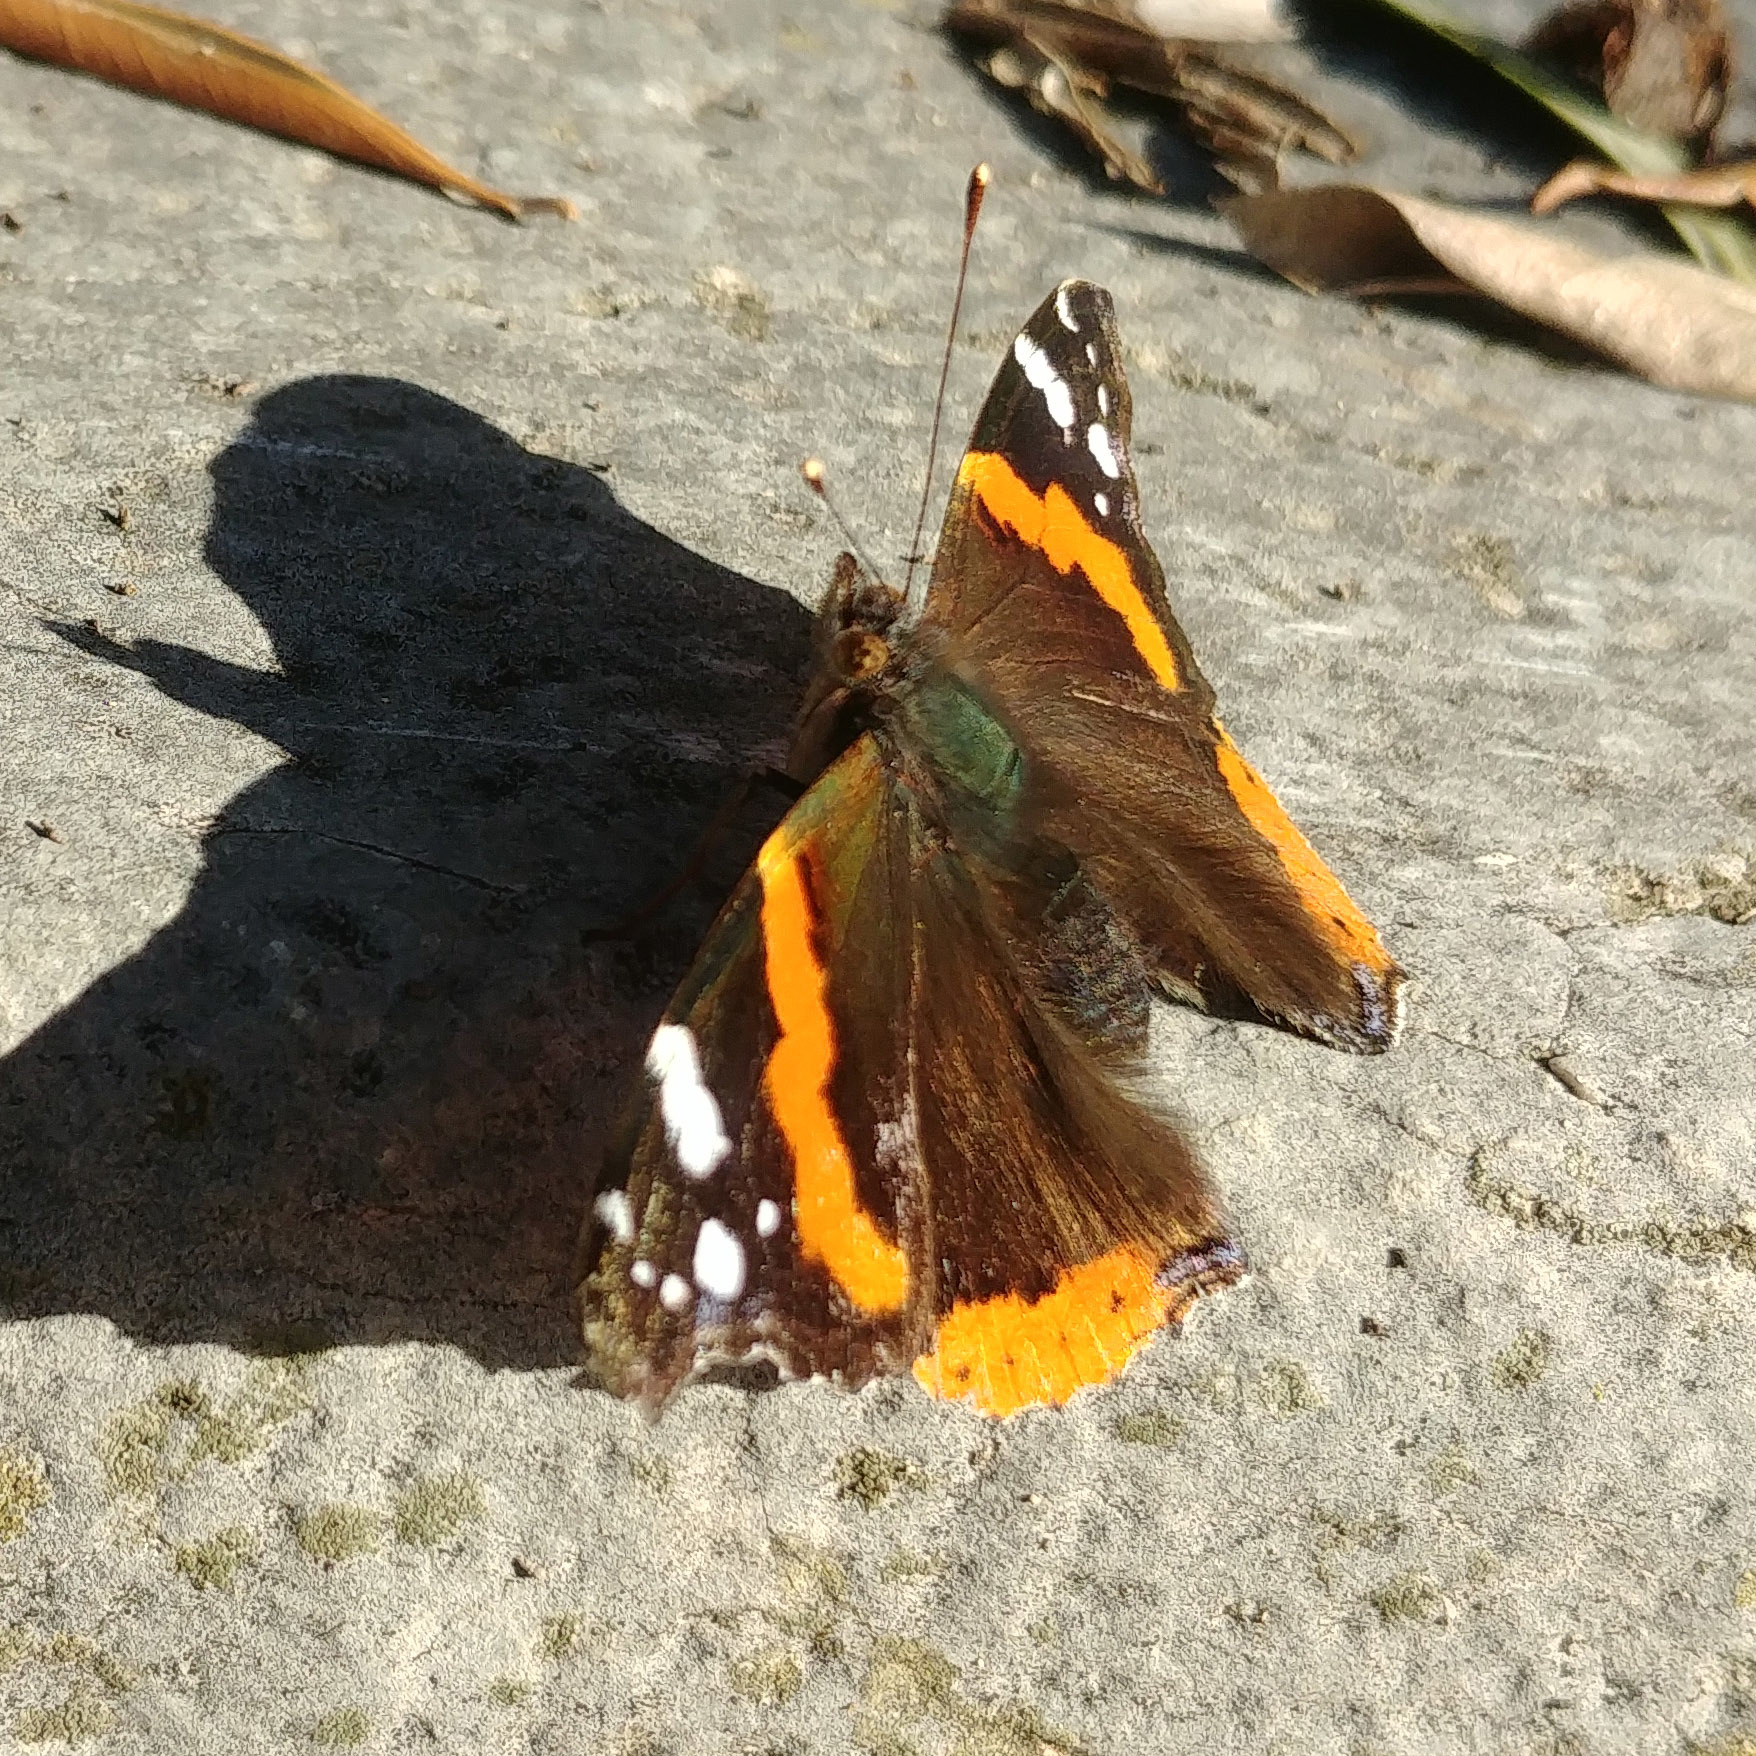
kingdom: Animalia
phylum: Arthropoda
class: Insecta
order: Lepidoptera
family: Nymphalidae
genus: Vanessa
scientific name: Vanessa atalanta
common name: Red admiral
